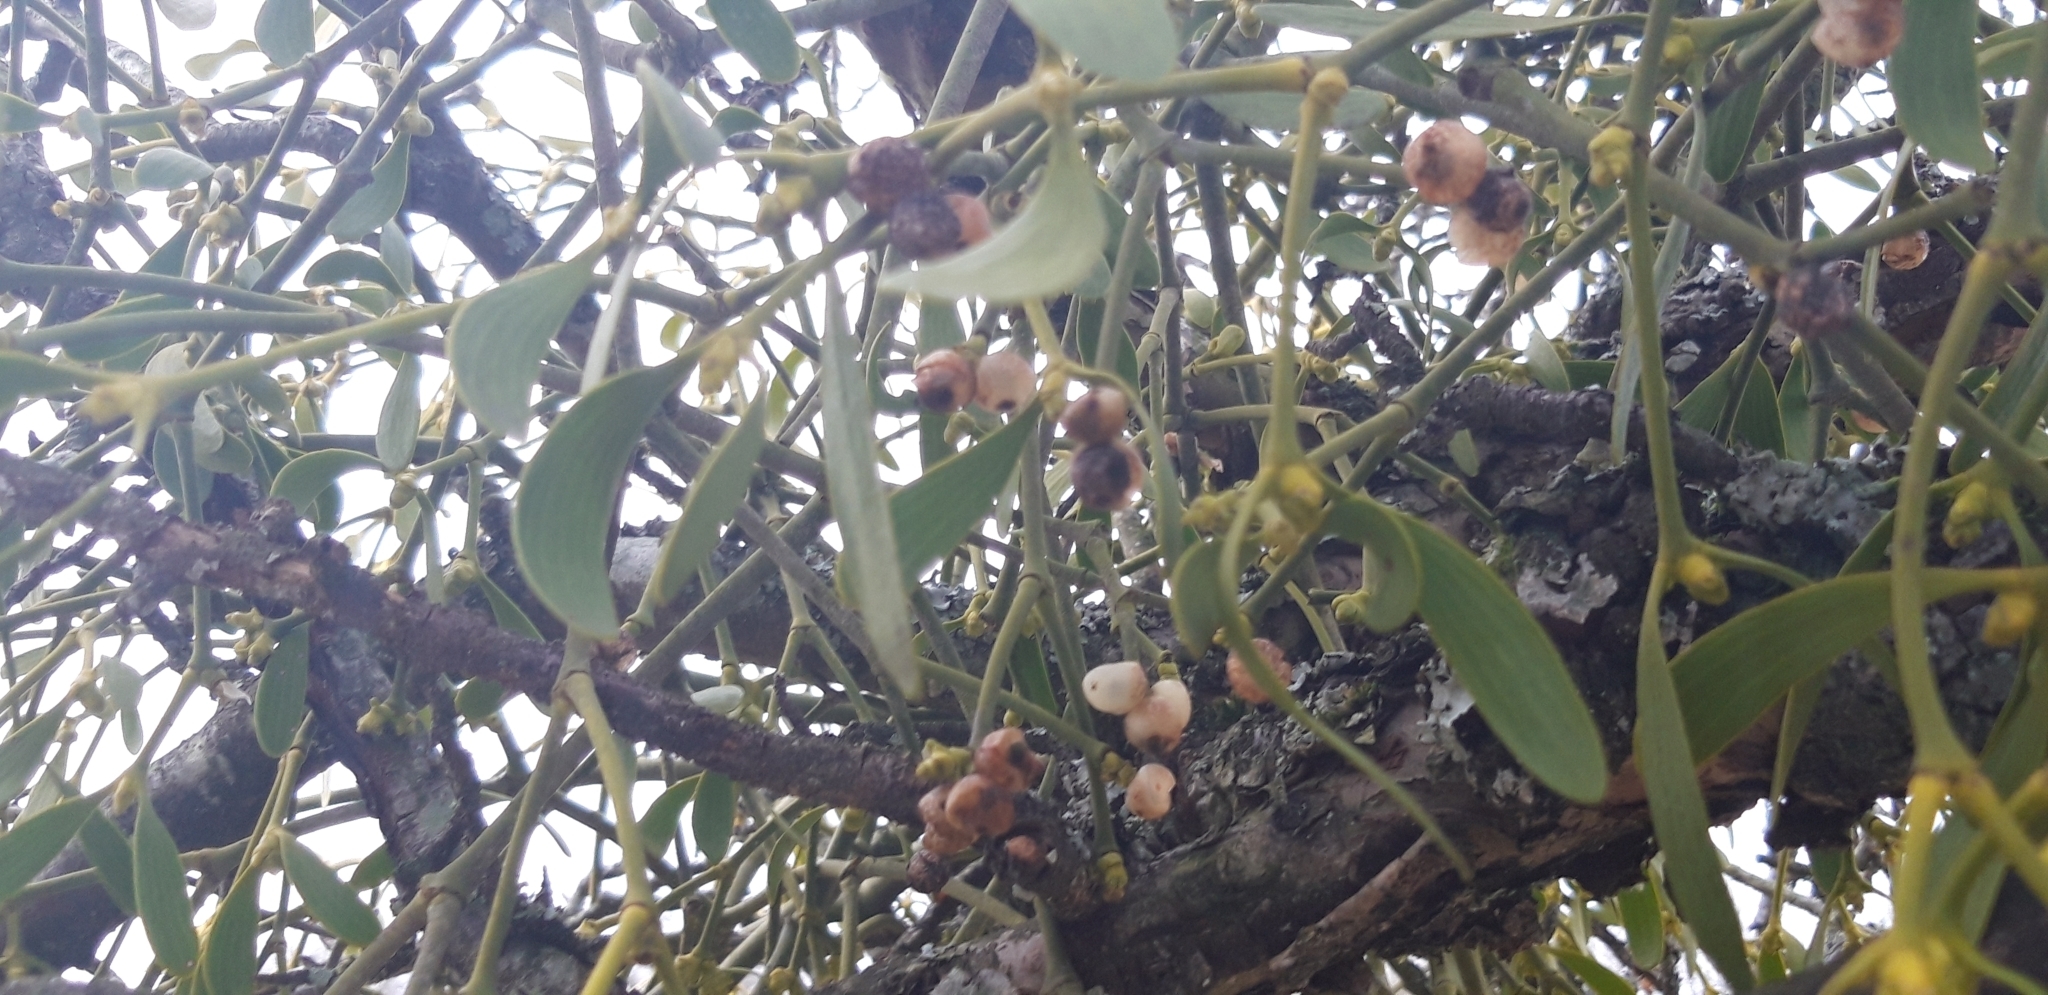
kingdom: Plantae
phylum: Tracheophyta
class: Magnoliopsida
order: Santalales
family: Viscaceae
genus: Viscum
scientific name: Viscum album
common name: Mistletoe
